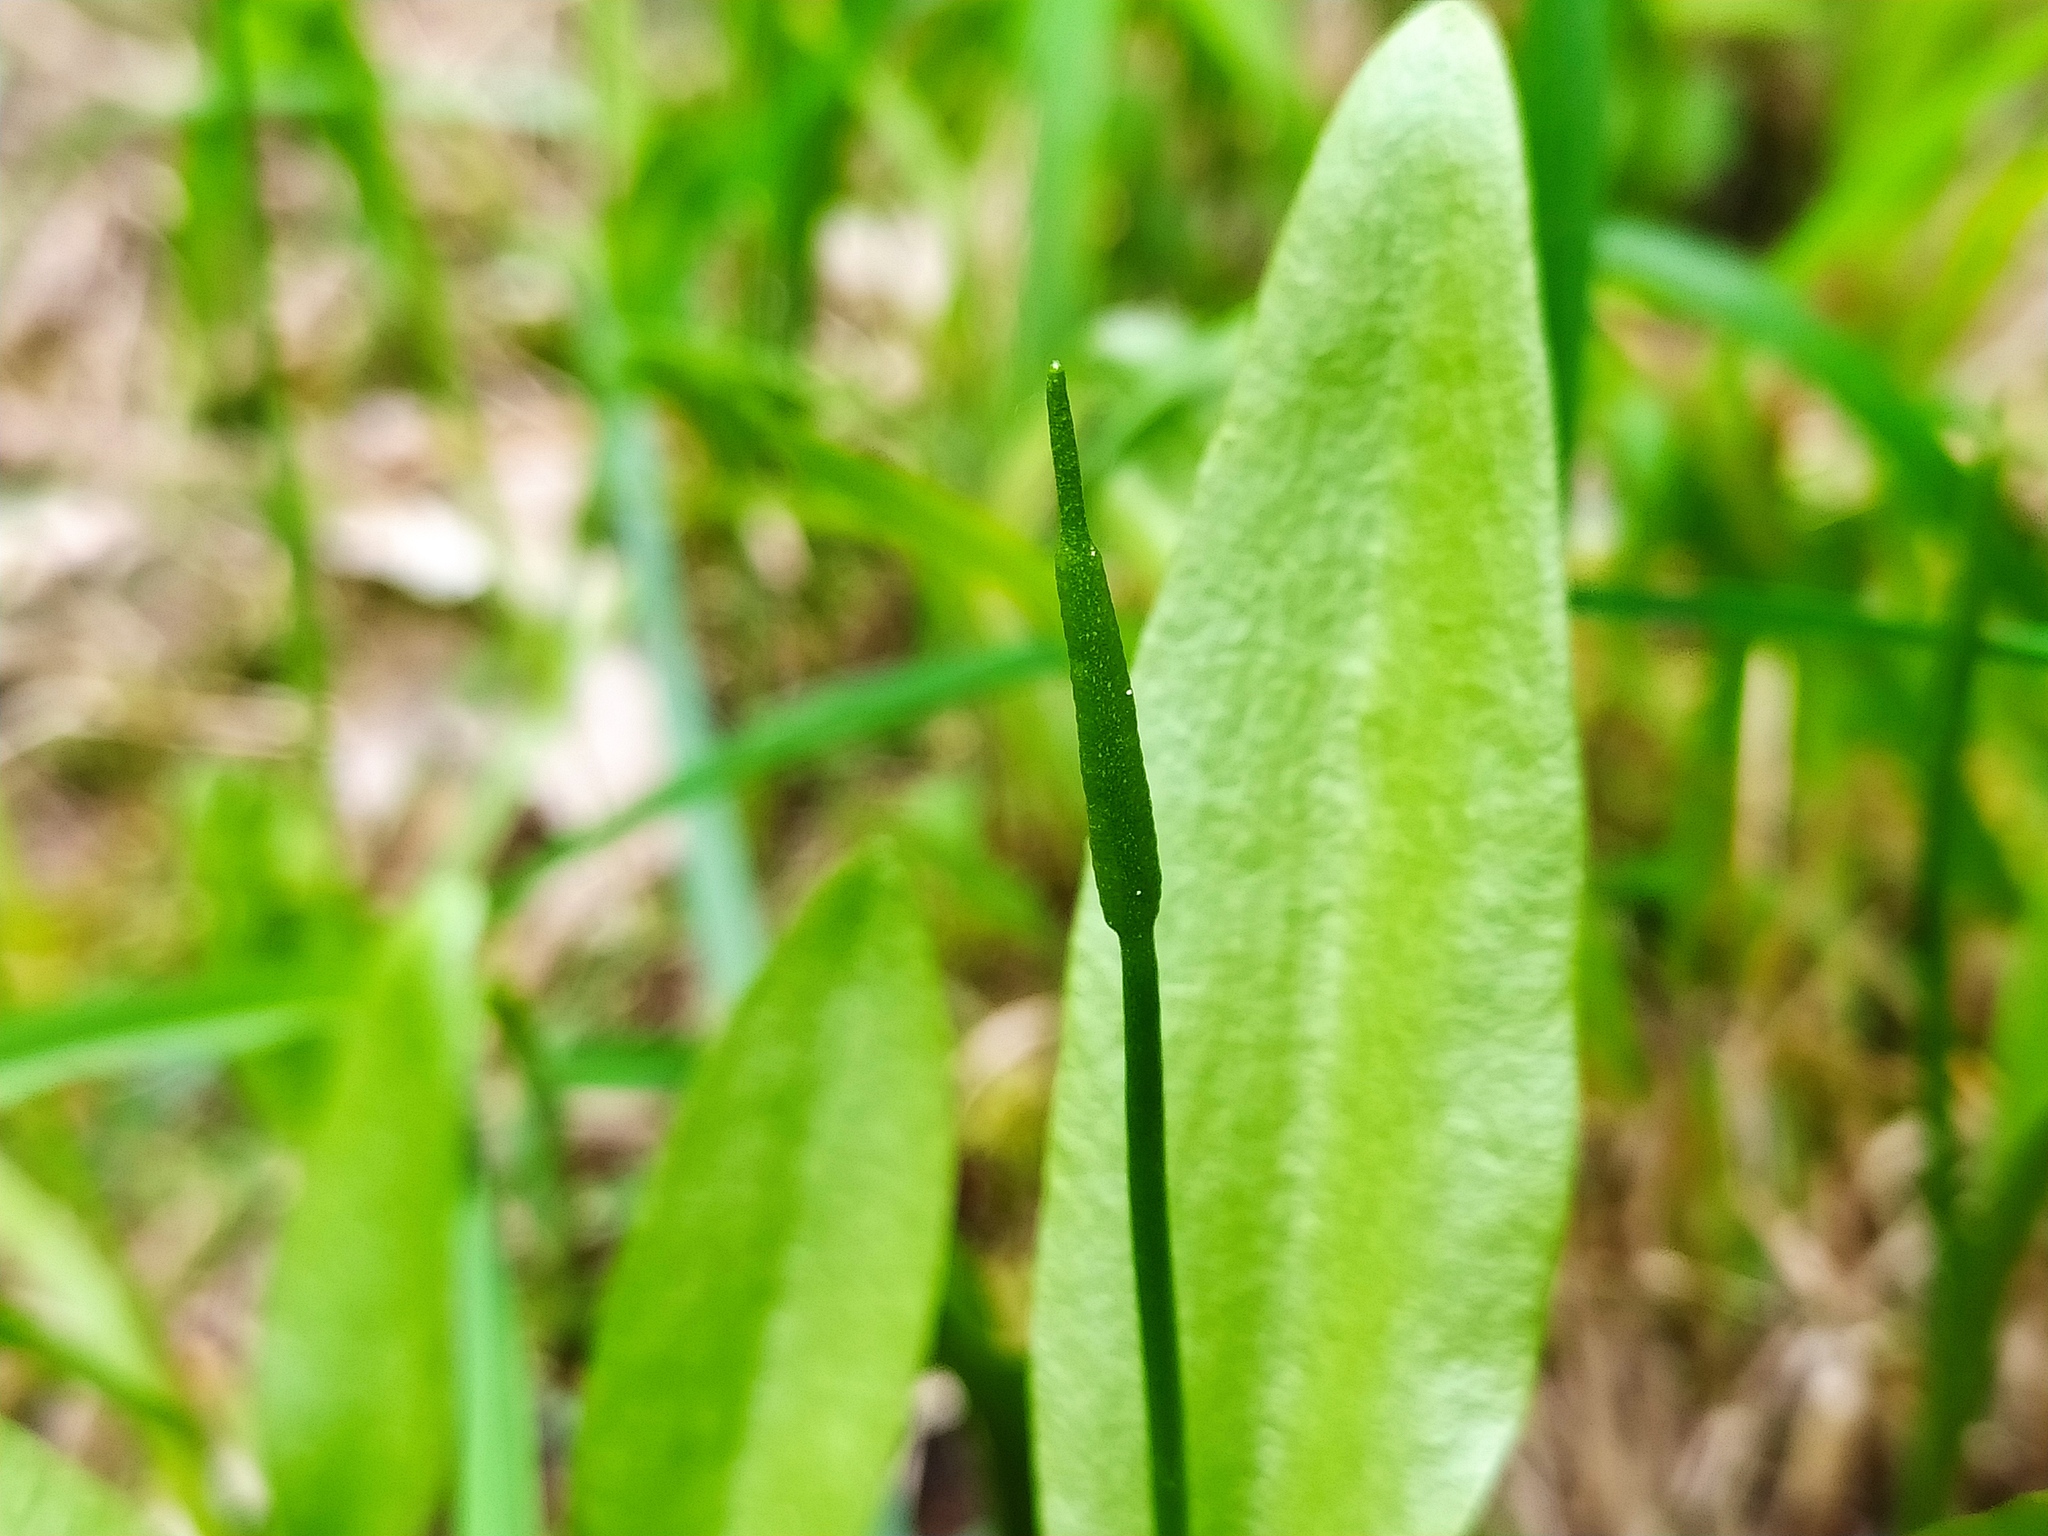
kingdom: Plantae
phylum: Tracheophyta
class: Polypodiopsida
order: Ophioglossales
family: Ophioglossaceae
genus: Ophioglossum
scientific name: Ophioglossum vulgatum
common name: Adder's-tongue
